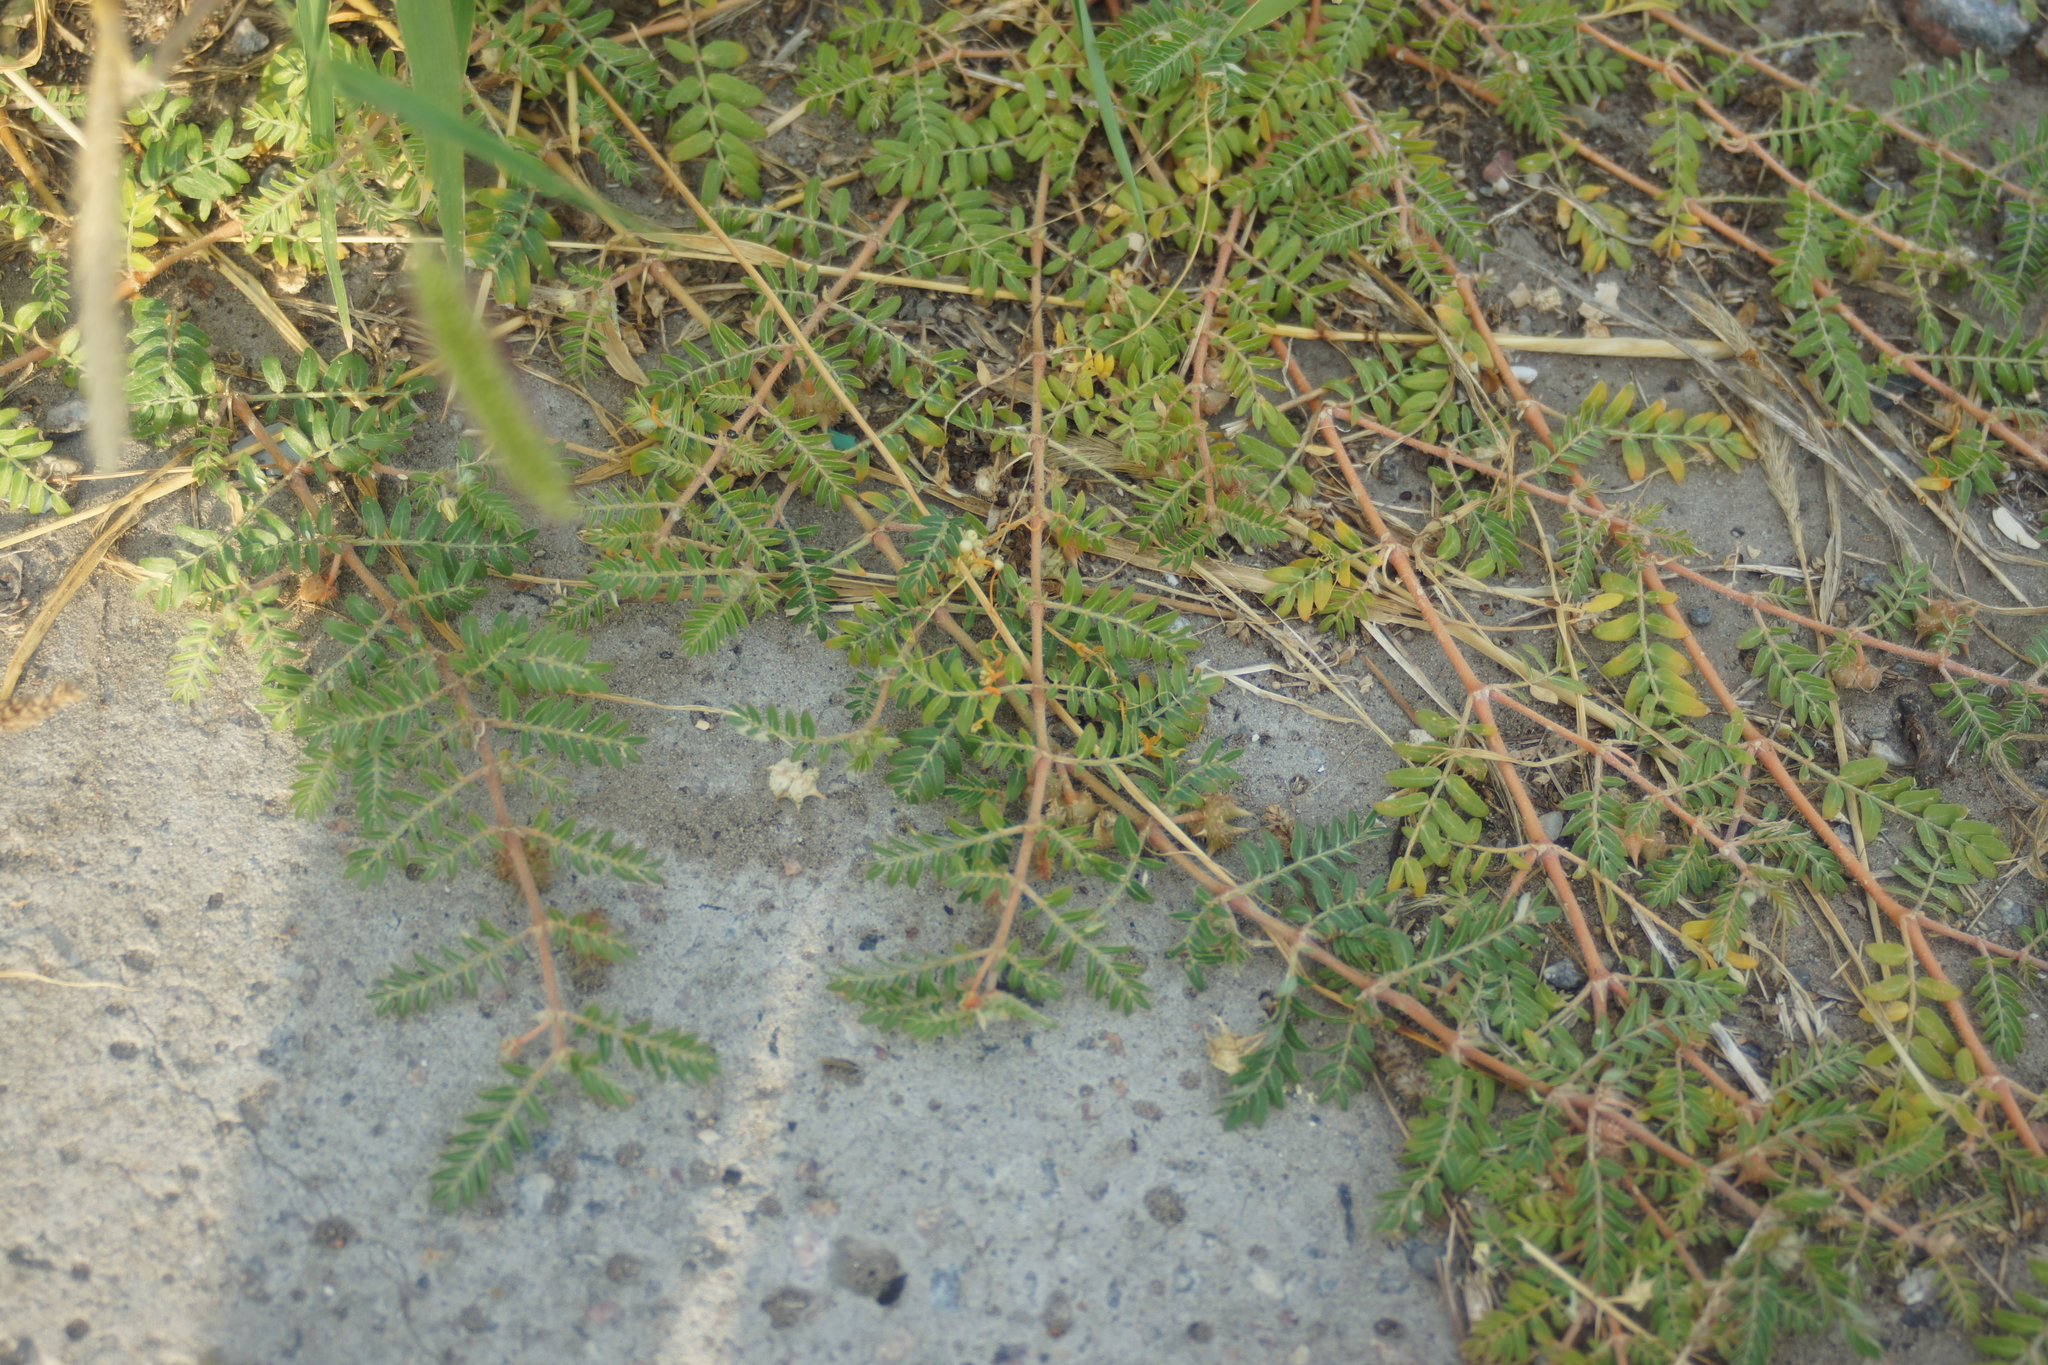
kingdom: Plantae
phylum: Tracheophyta
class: Magnoliopsida
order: Zygophyllales
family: Zygophyllaceae
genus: Tribulus
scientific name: Tribulus terrestris
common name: Puncturevine
